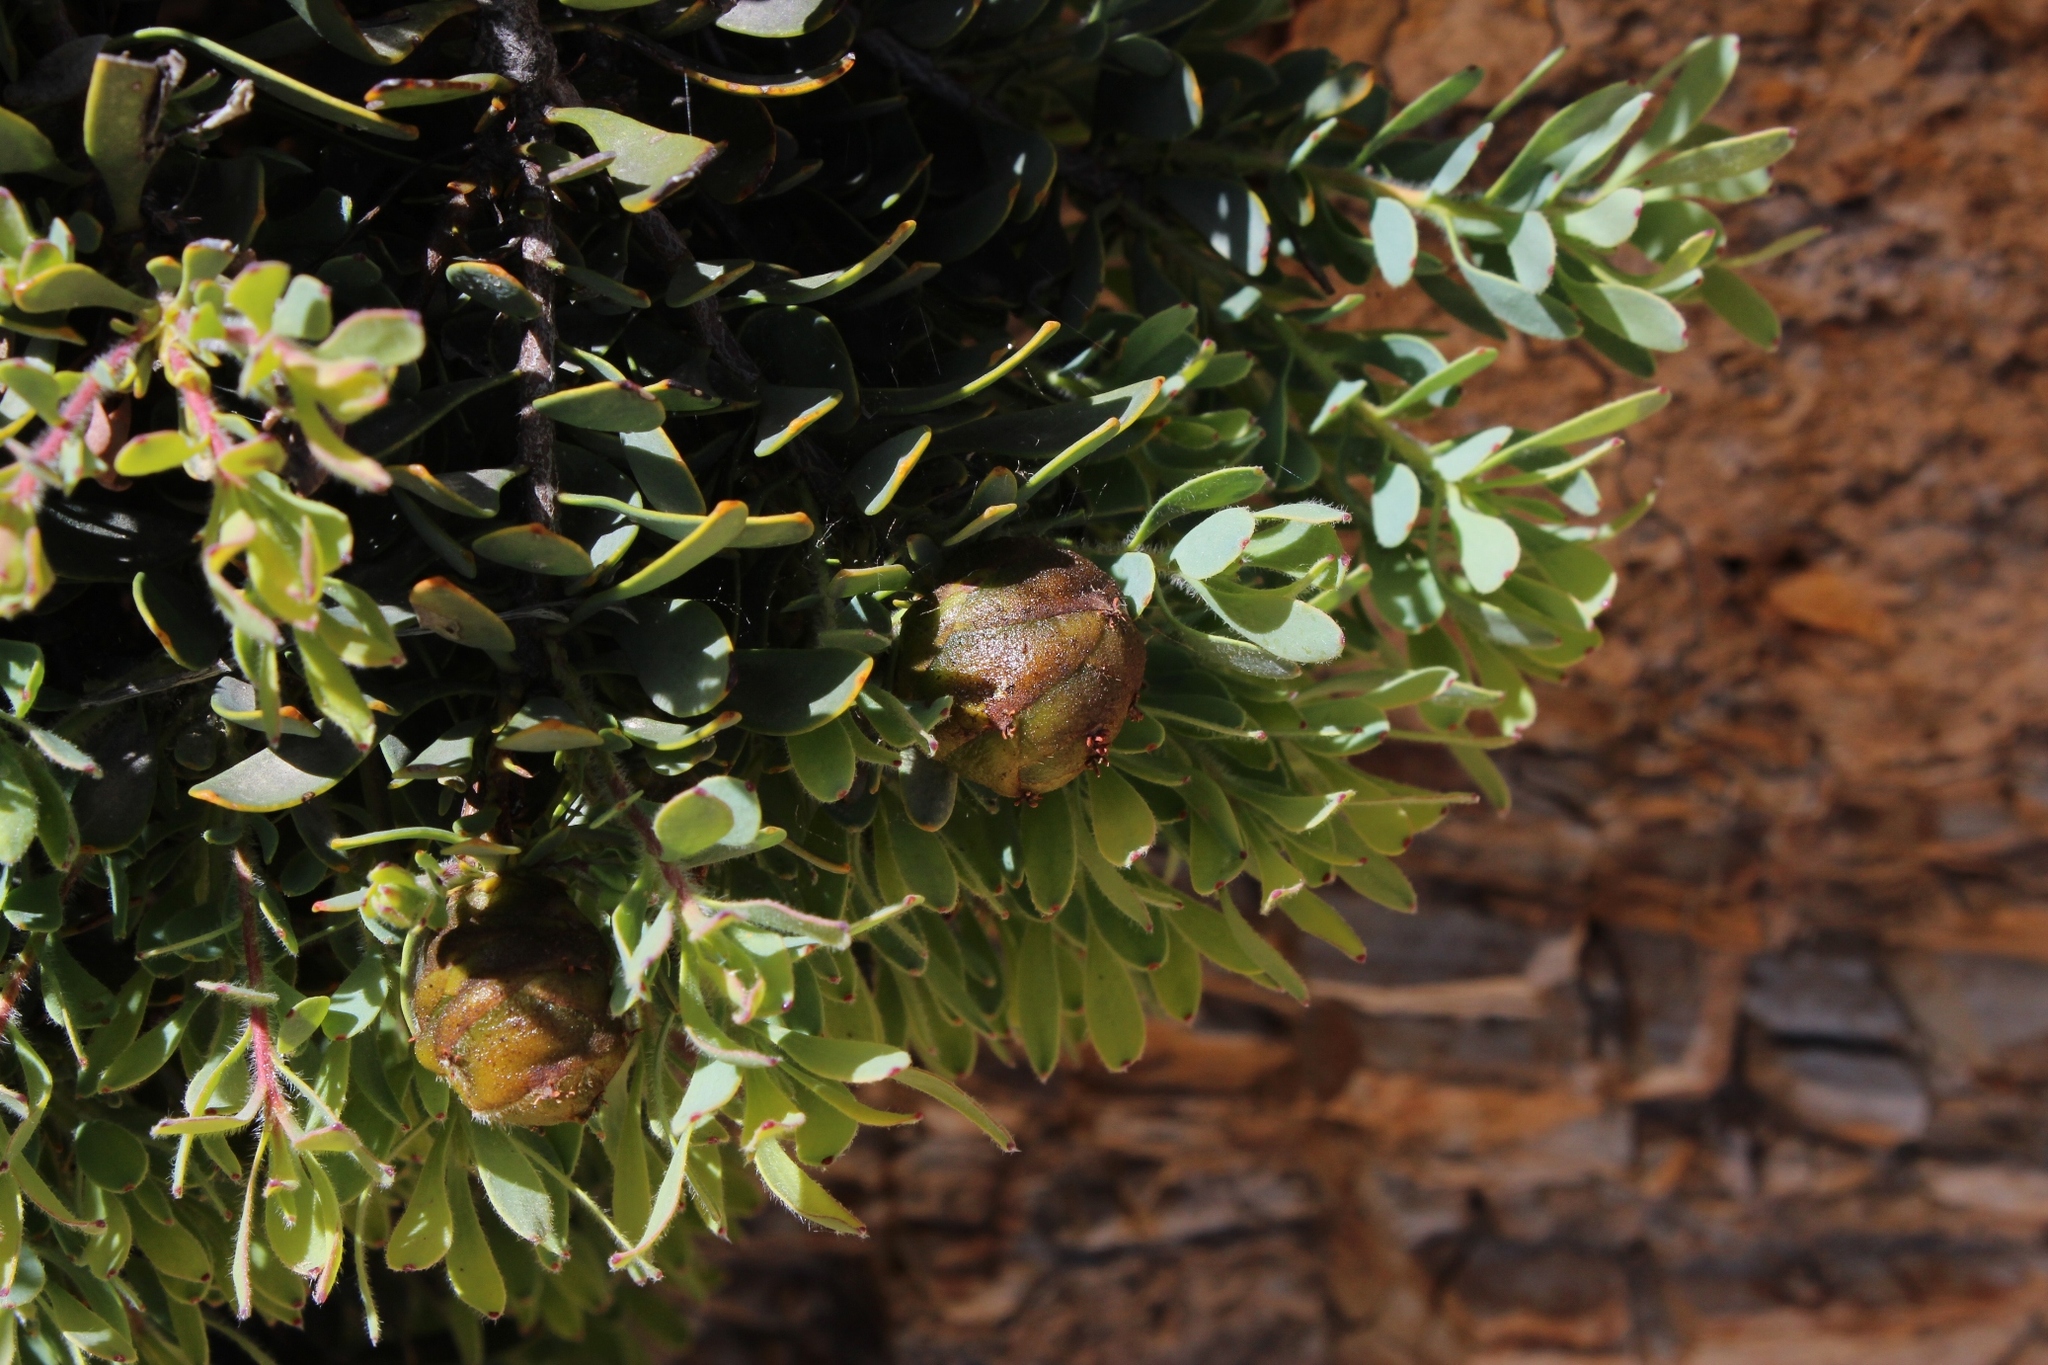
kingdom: Plantae
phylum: Tracheophyta
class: Magnoliopsida
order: Proteales
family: Proteaceae
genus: Leucadendron
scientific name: Leucadendron glaberrimum
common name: Common oily conebush
